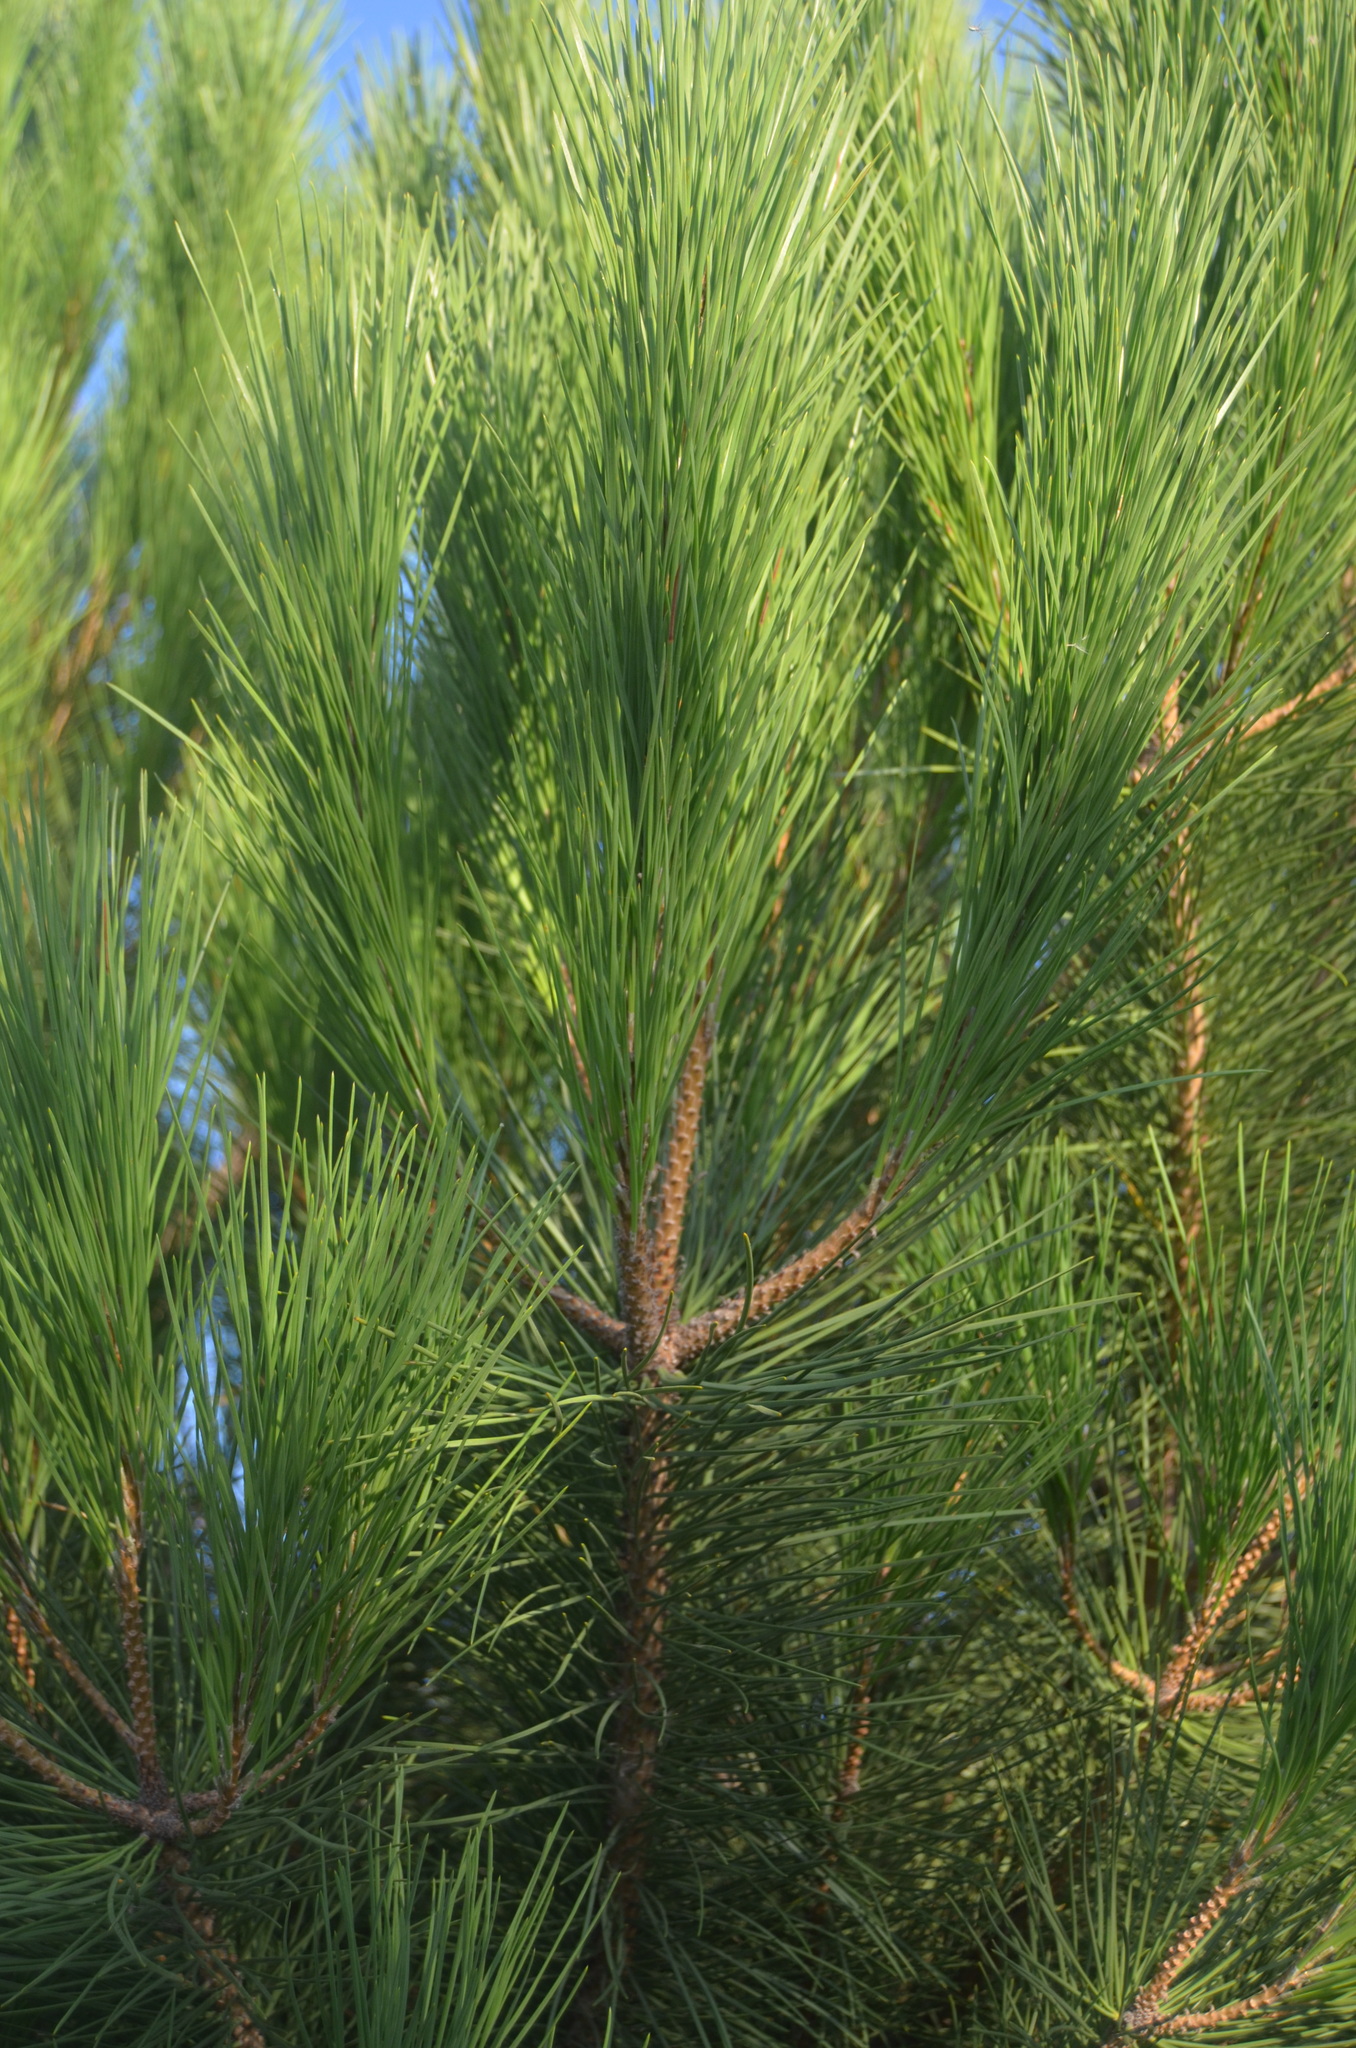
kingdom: Plantae
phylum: Tracheophyta
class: Pinopsida
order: Pinales
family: Pinaceae
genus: Pinus
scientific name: Pinus pinea
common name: Italian stone pine
